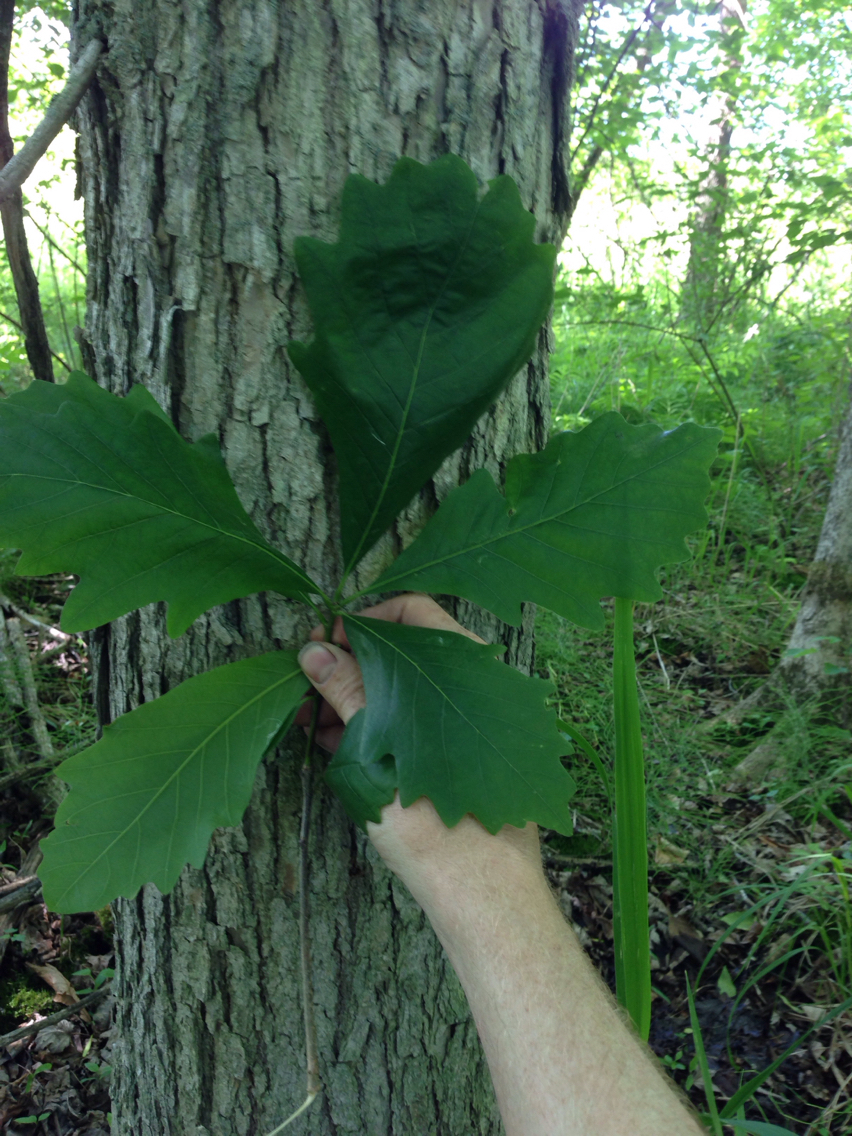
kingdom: Plantae
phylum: Tracheophyta
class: Magnoliopsida
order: Fagales
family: Fagaceae
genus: Quercus
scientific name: Quercus bicolor
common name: Swamp white oak
